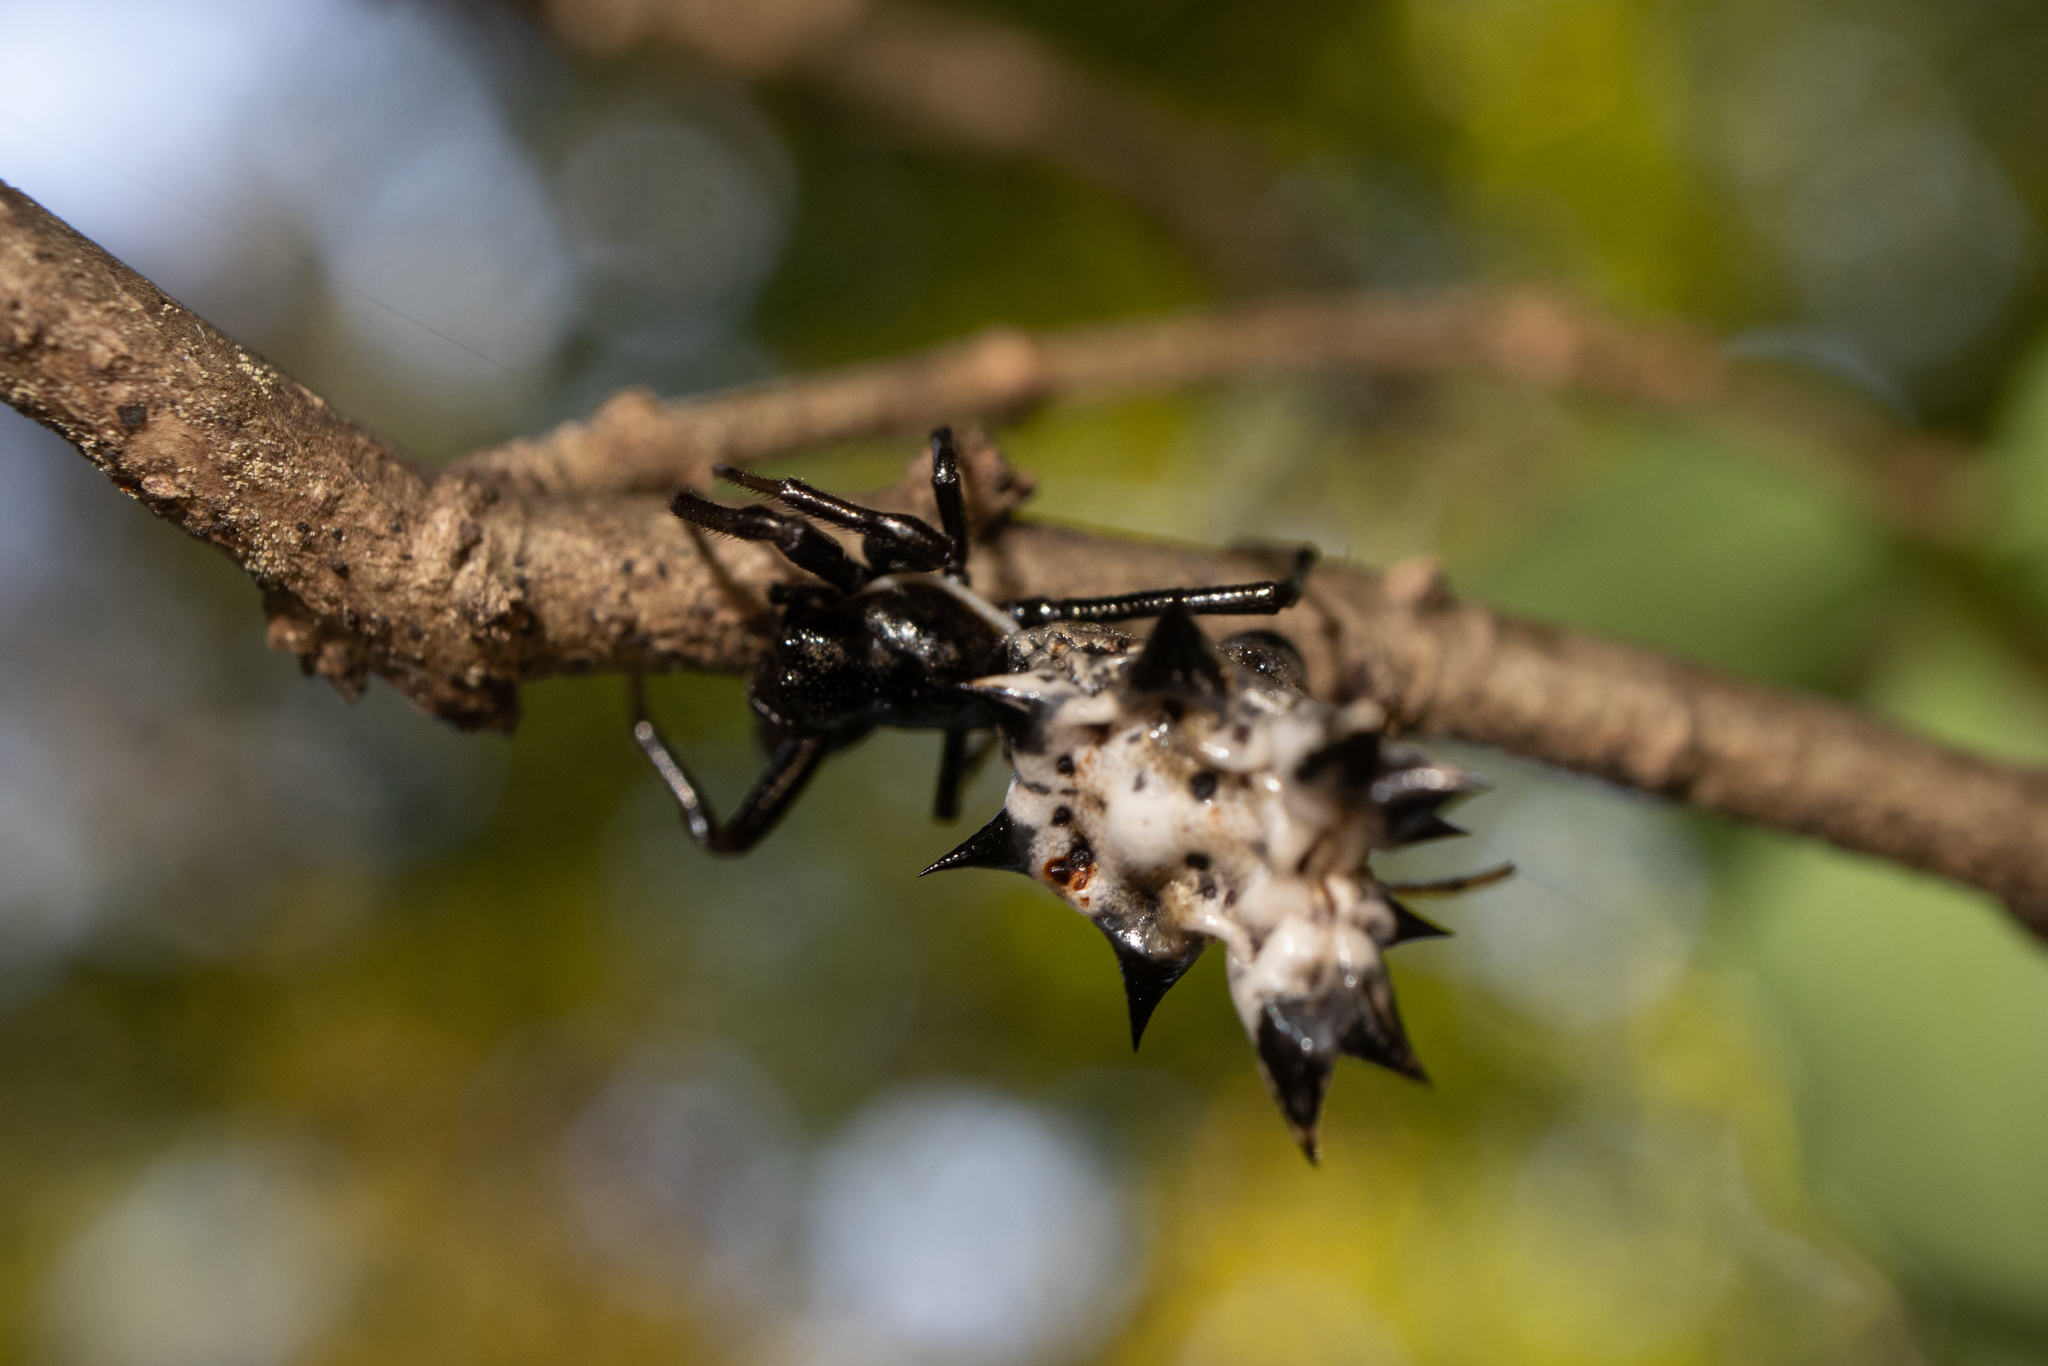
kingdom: Animalia
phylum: Arthropoda
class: Arachnida
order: Araneae
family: Araneidae
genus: Micrathena
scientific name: Micrathena gracilis
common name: Orb weavers
